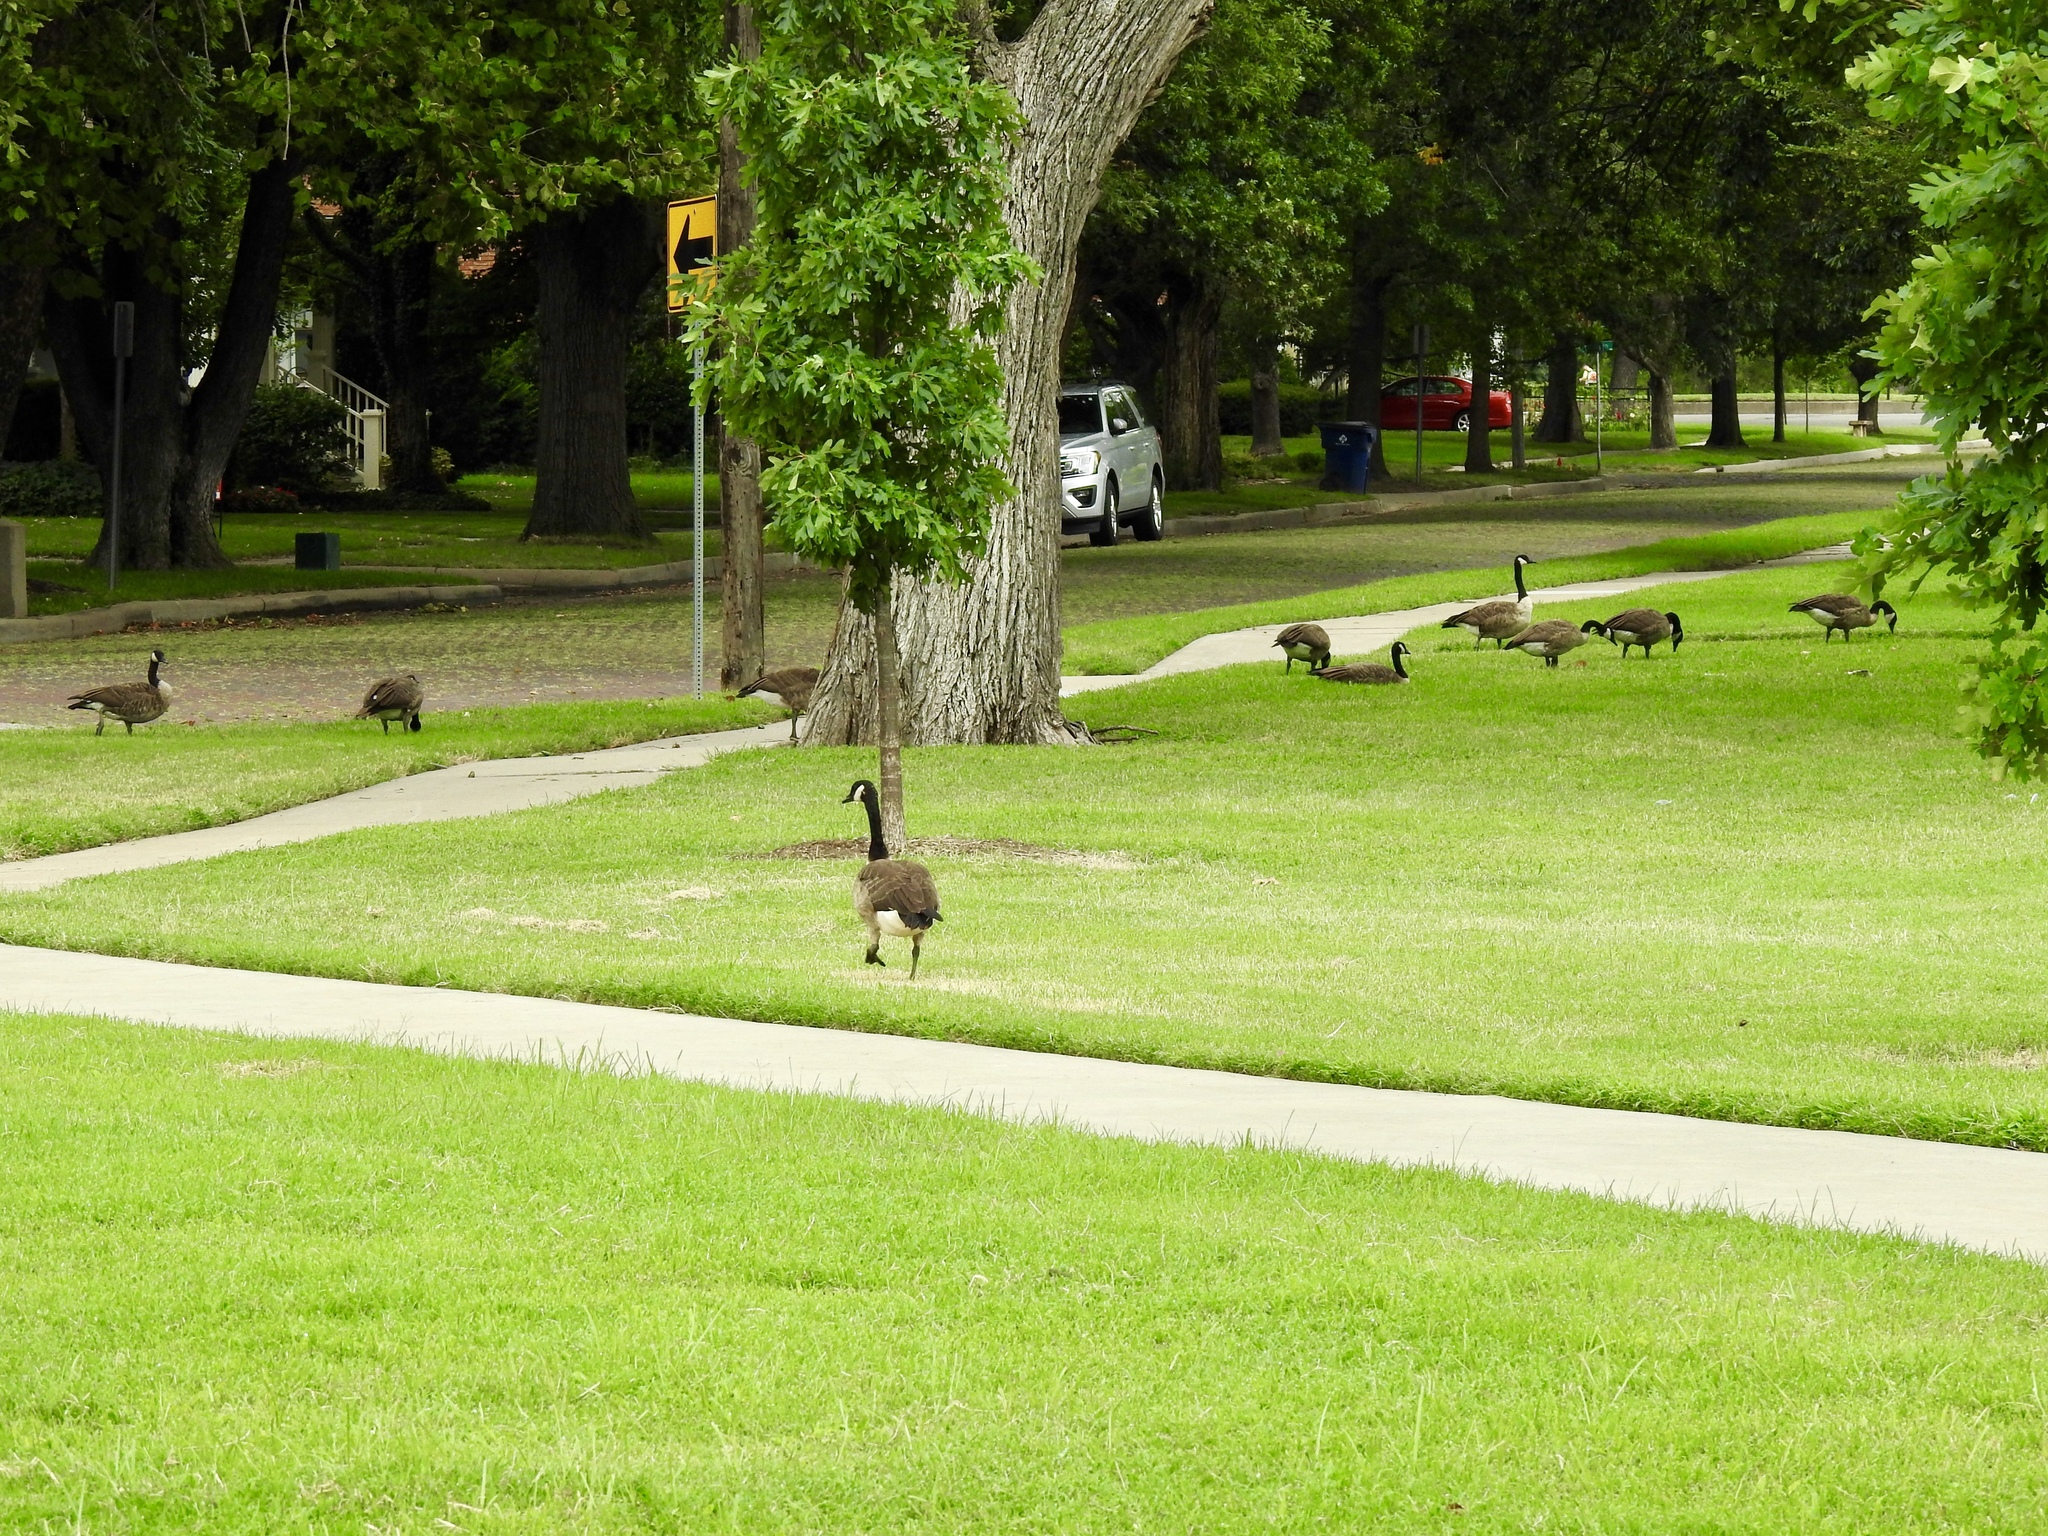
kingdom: Animalia
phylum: Chordata
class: Aves
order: Anseriformes
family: Anatidae
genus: Branta
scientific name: Branta canadensis
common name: Canada goose
